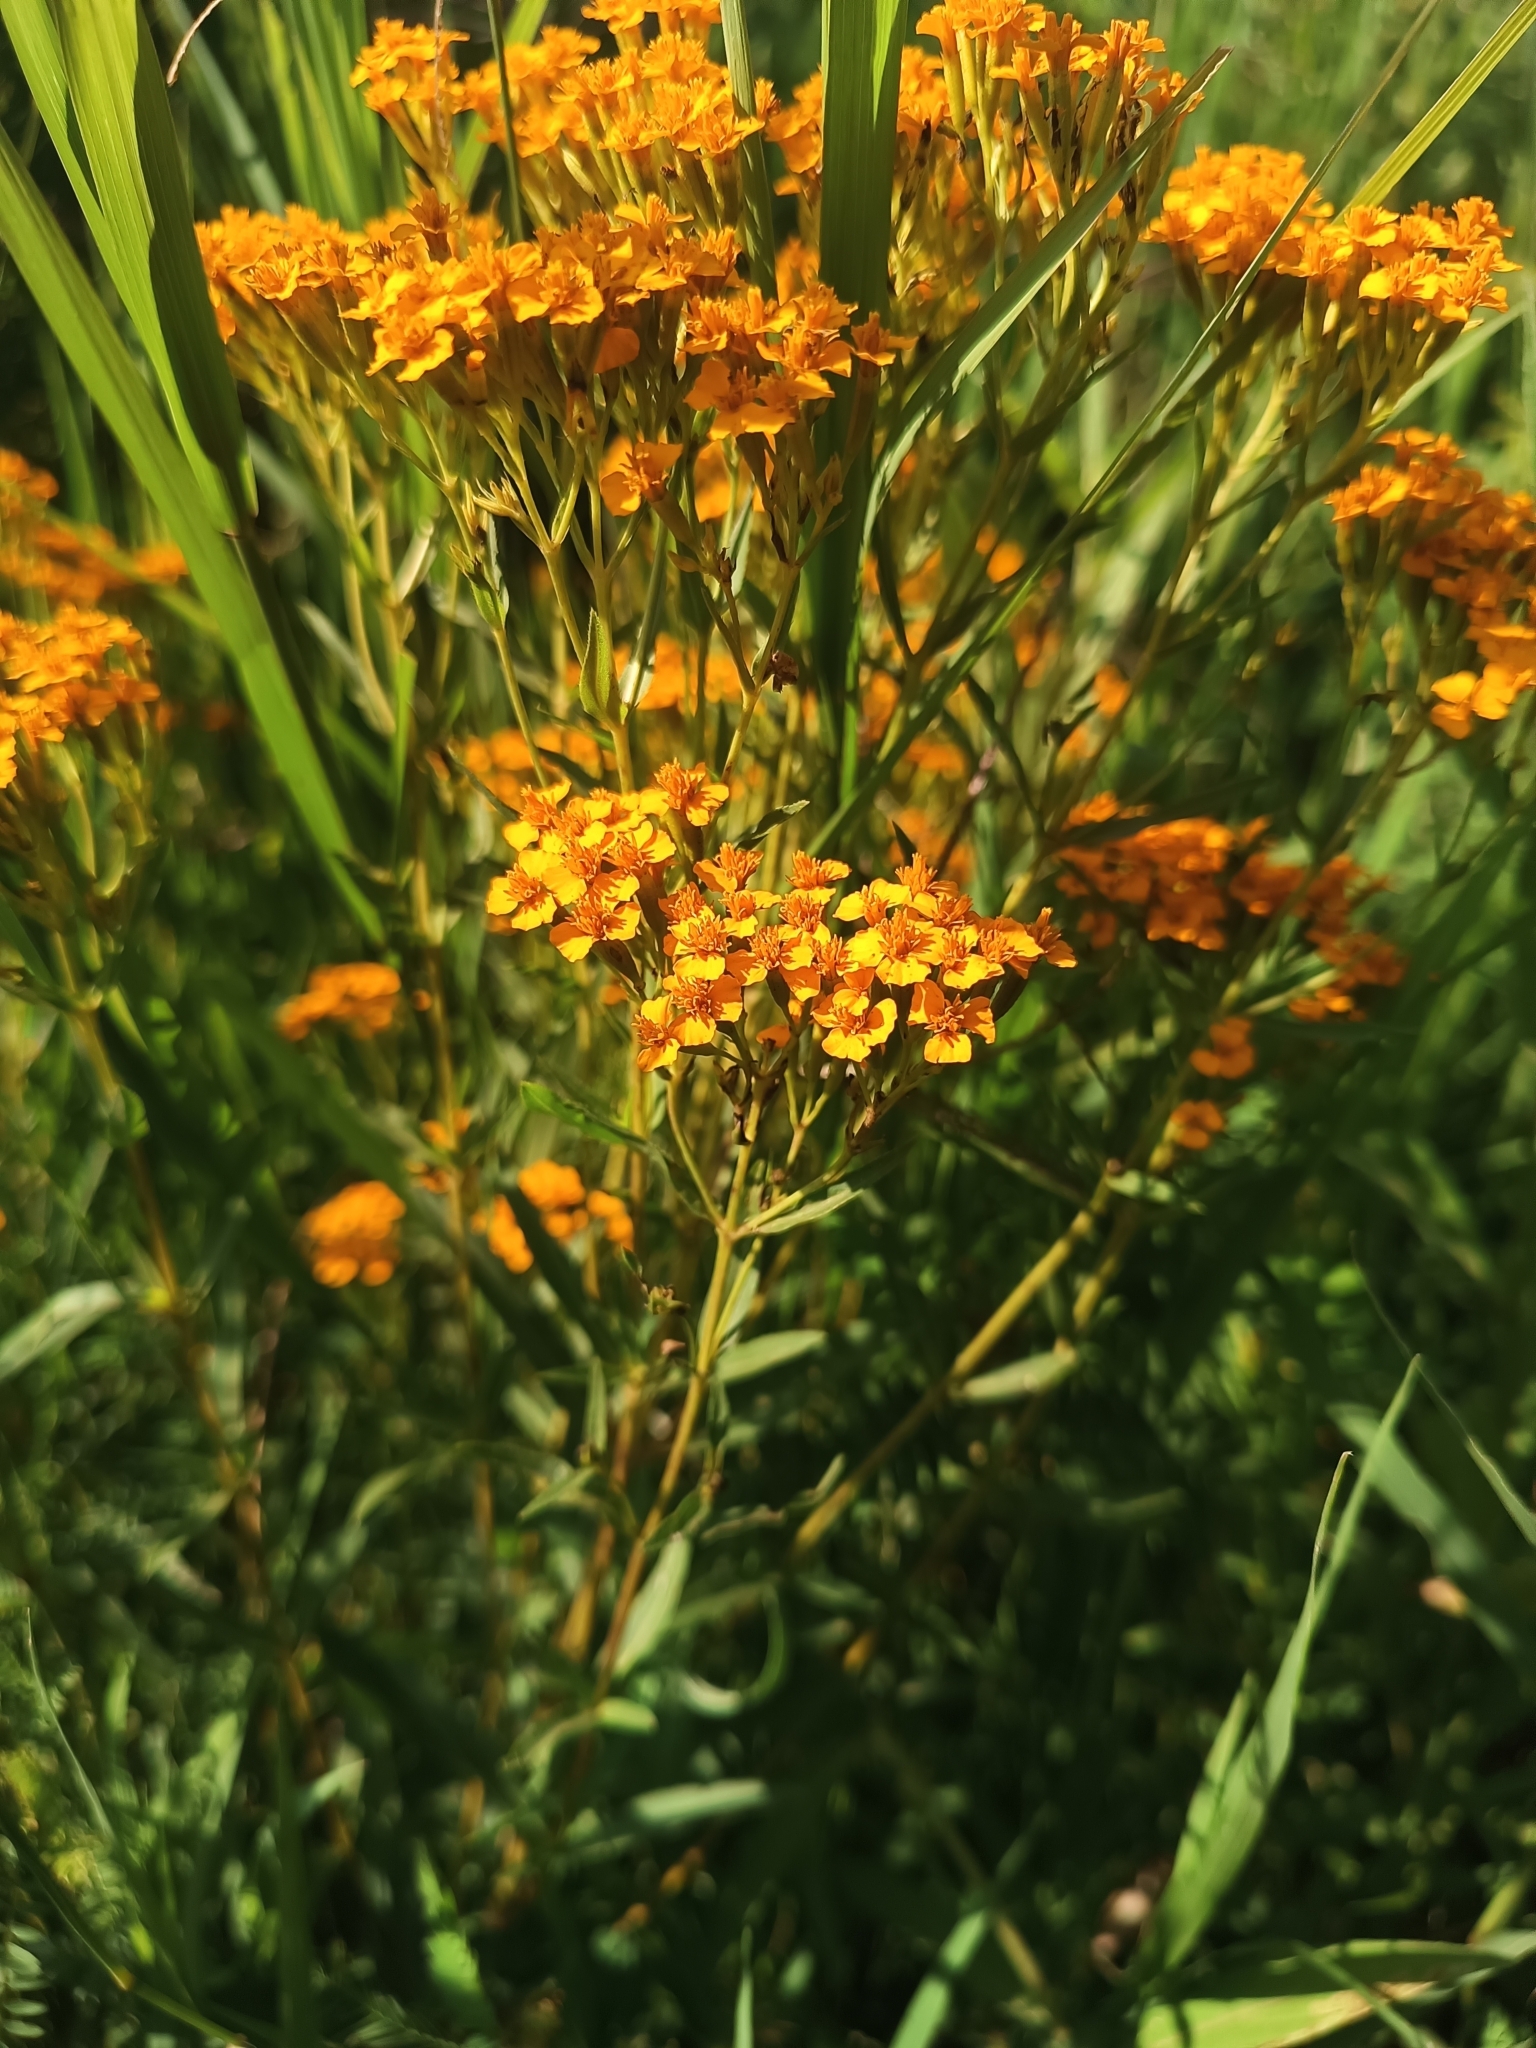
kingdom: Plantae
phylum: Tracheophyta
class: Magnoliopsida
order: Asterales
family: Asteraceae
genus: Tagetes
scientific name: Tagetes lucida
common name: Sweetscented marigold
